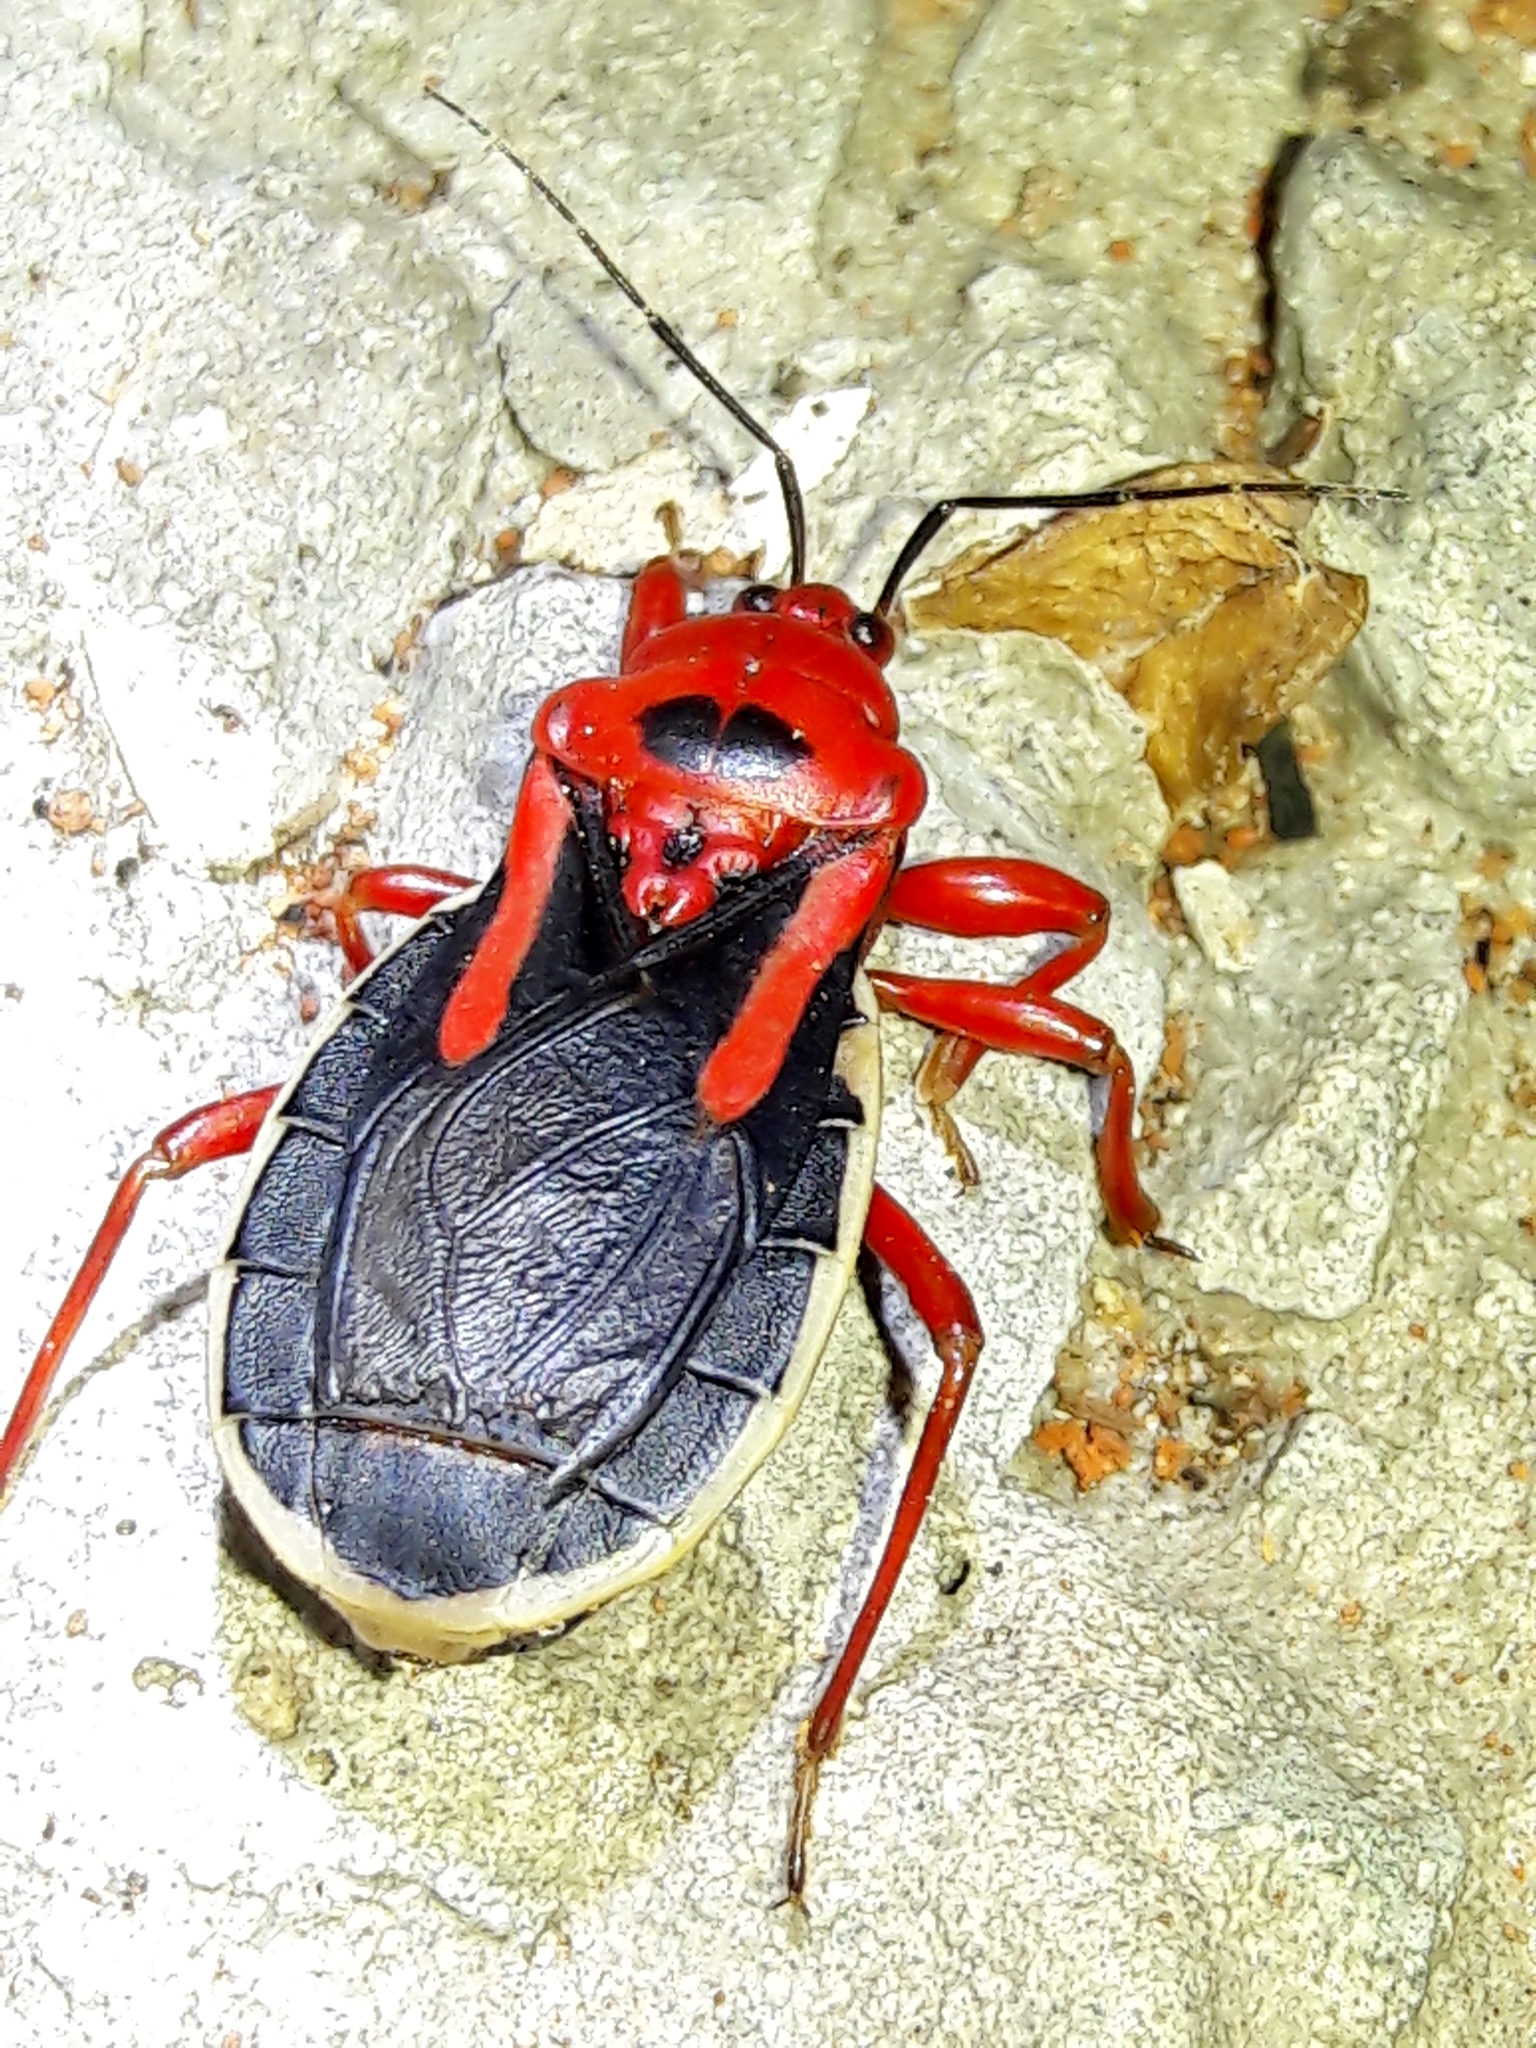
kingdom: Animalia
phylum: Arthropoda
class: Insecta
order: Hemiptera
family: Reduviidae
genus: Brontostoma
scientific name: Brontostoma discus
